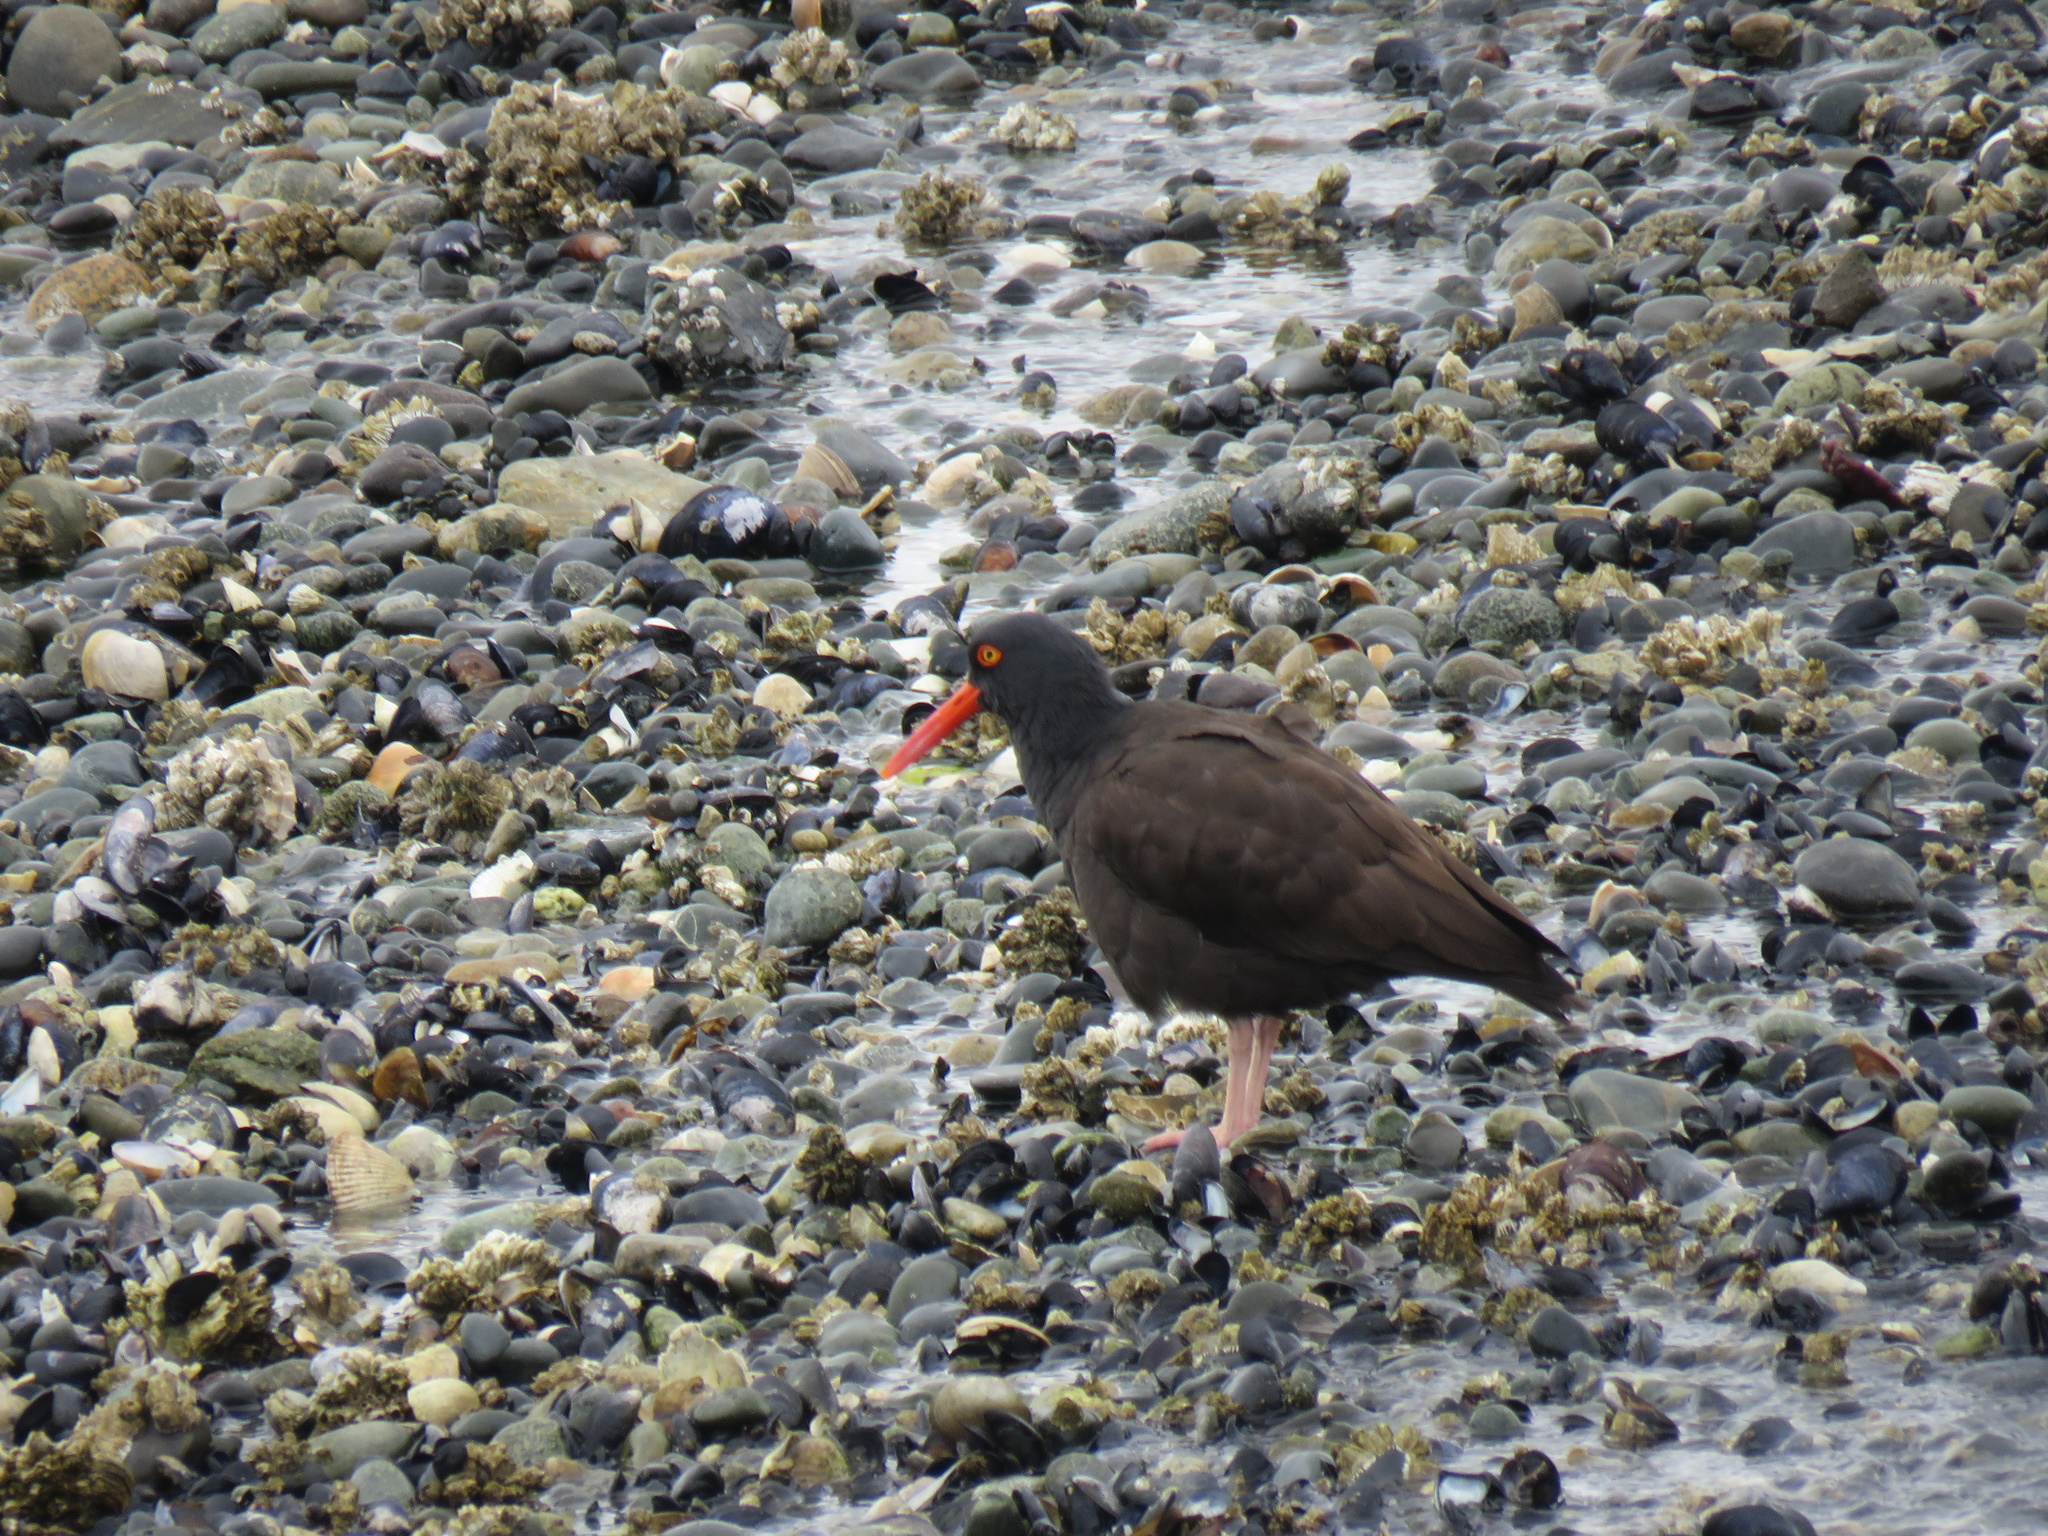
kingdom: Animalia
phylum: Chordata
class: Aves
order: Charadriiformes
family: Haematopodidae
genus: Haematopus
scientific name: Haematopus bachmani
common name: Black oystercatcher
